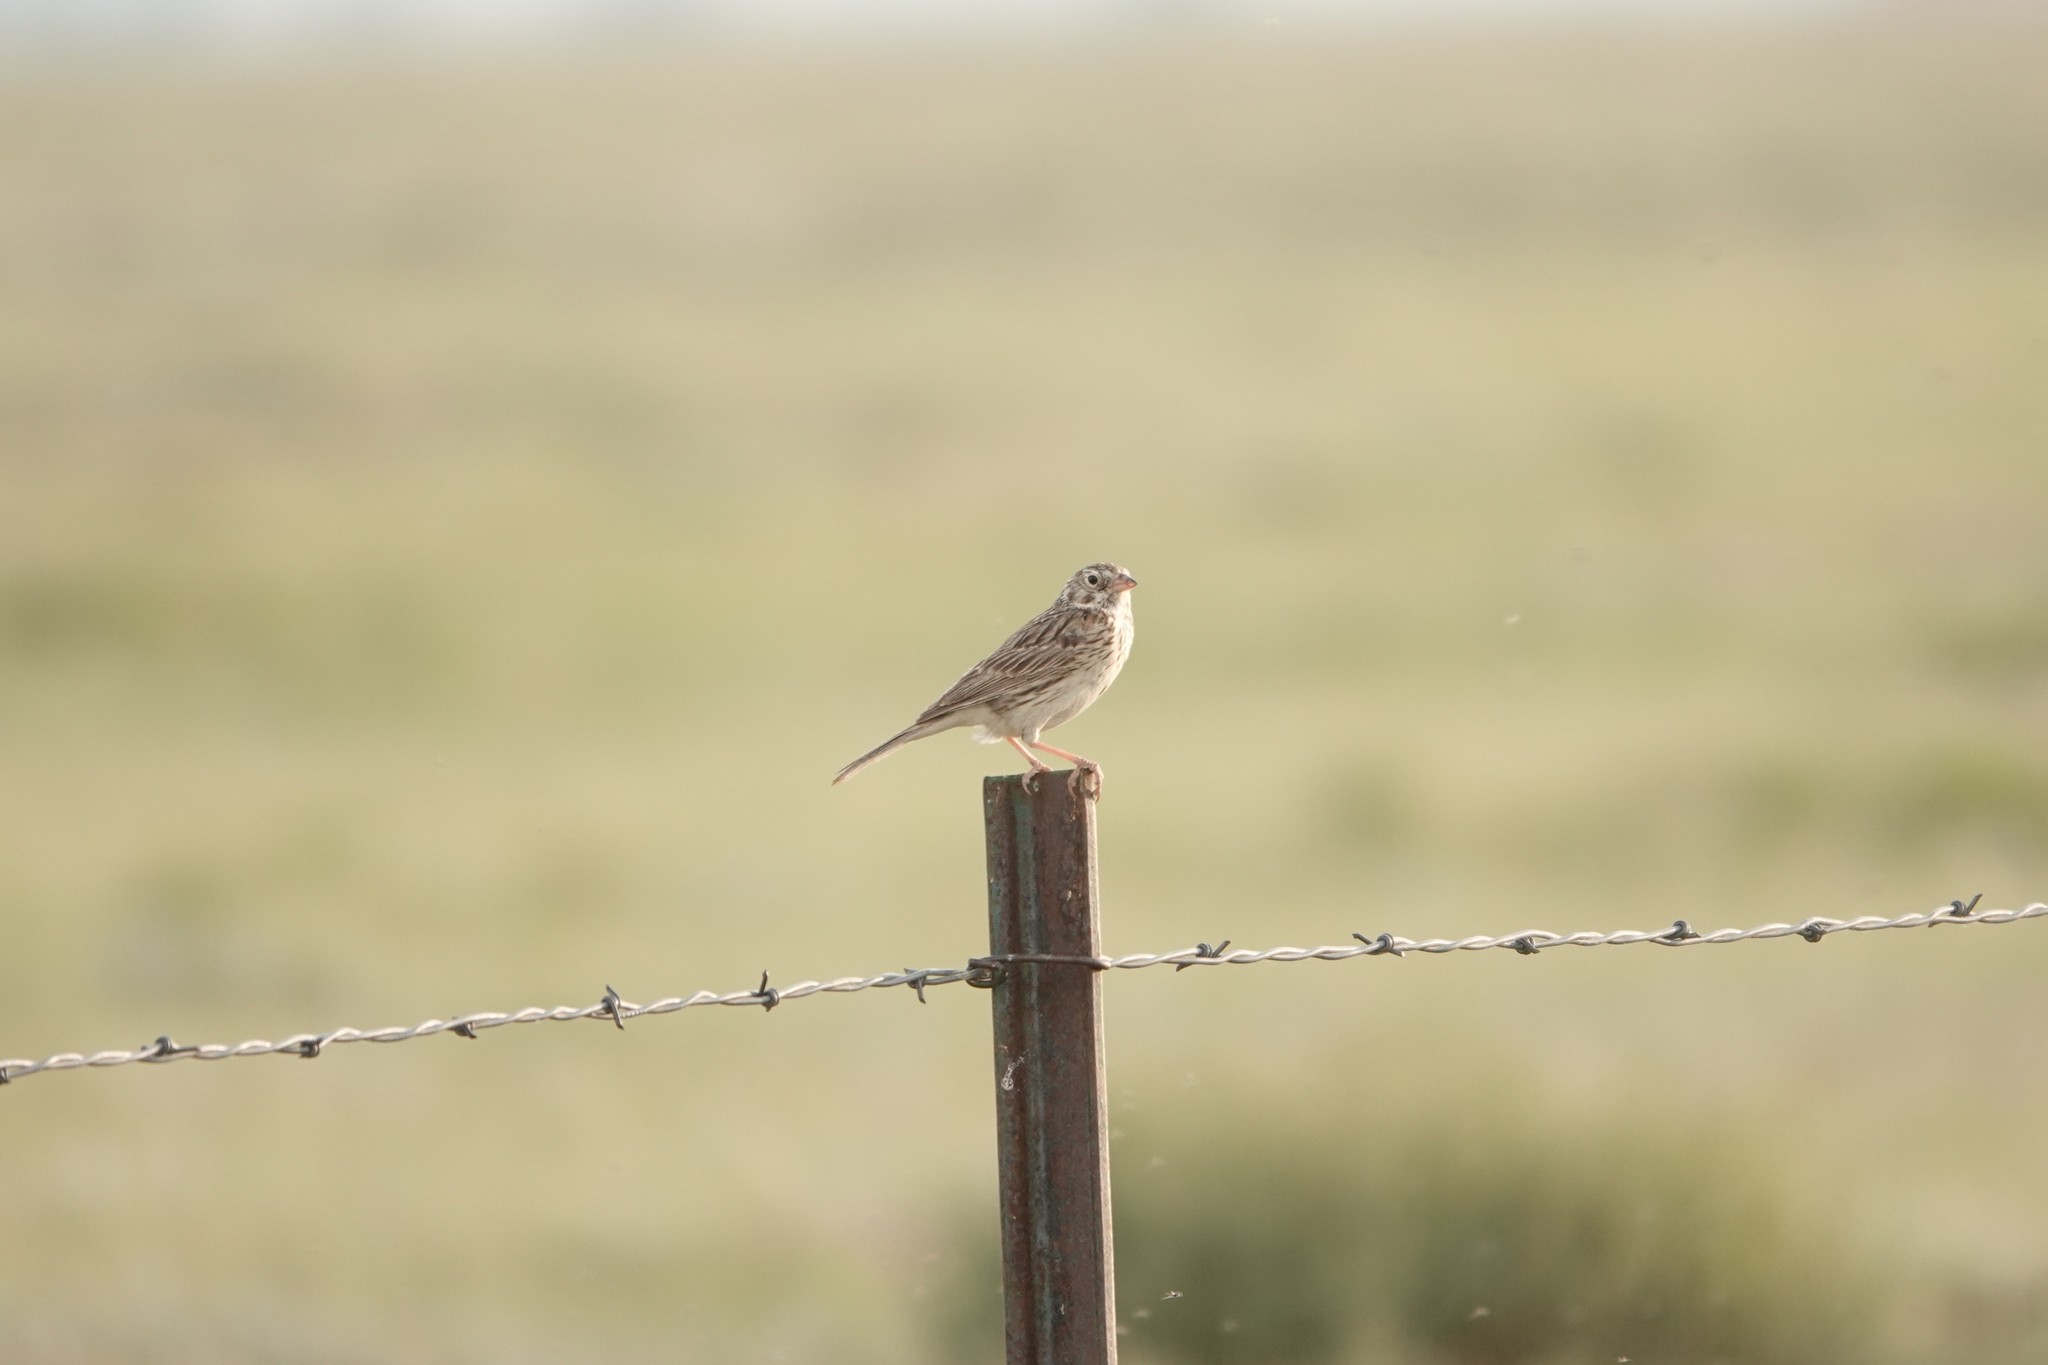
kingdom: Animalia
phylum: Chordata
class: Aves
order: Passeriformes
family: Passerellidae
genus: Pooecetes
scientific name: Pooecetes gramineus
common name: Vesper sparrow
